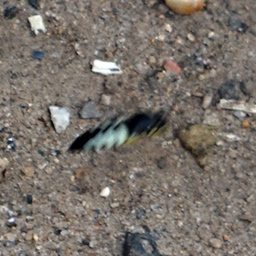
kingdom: Animalia
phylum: Arthropoda
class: Insecta
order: Hymenoptera
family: Crabronidae
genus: Bicyrtes
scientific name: Bicyrtes quadrifasciatus
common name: Four-banded stink bug hunter wasp
